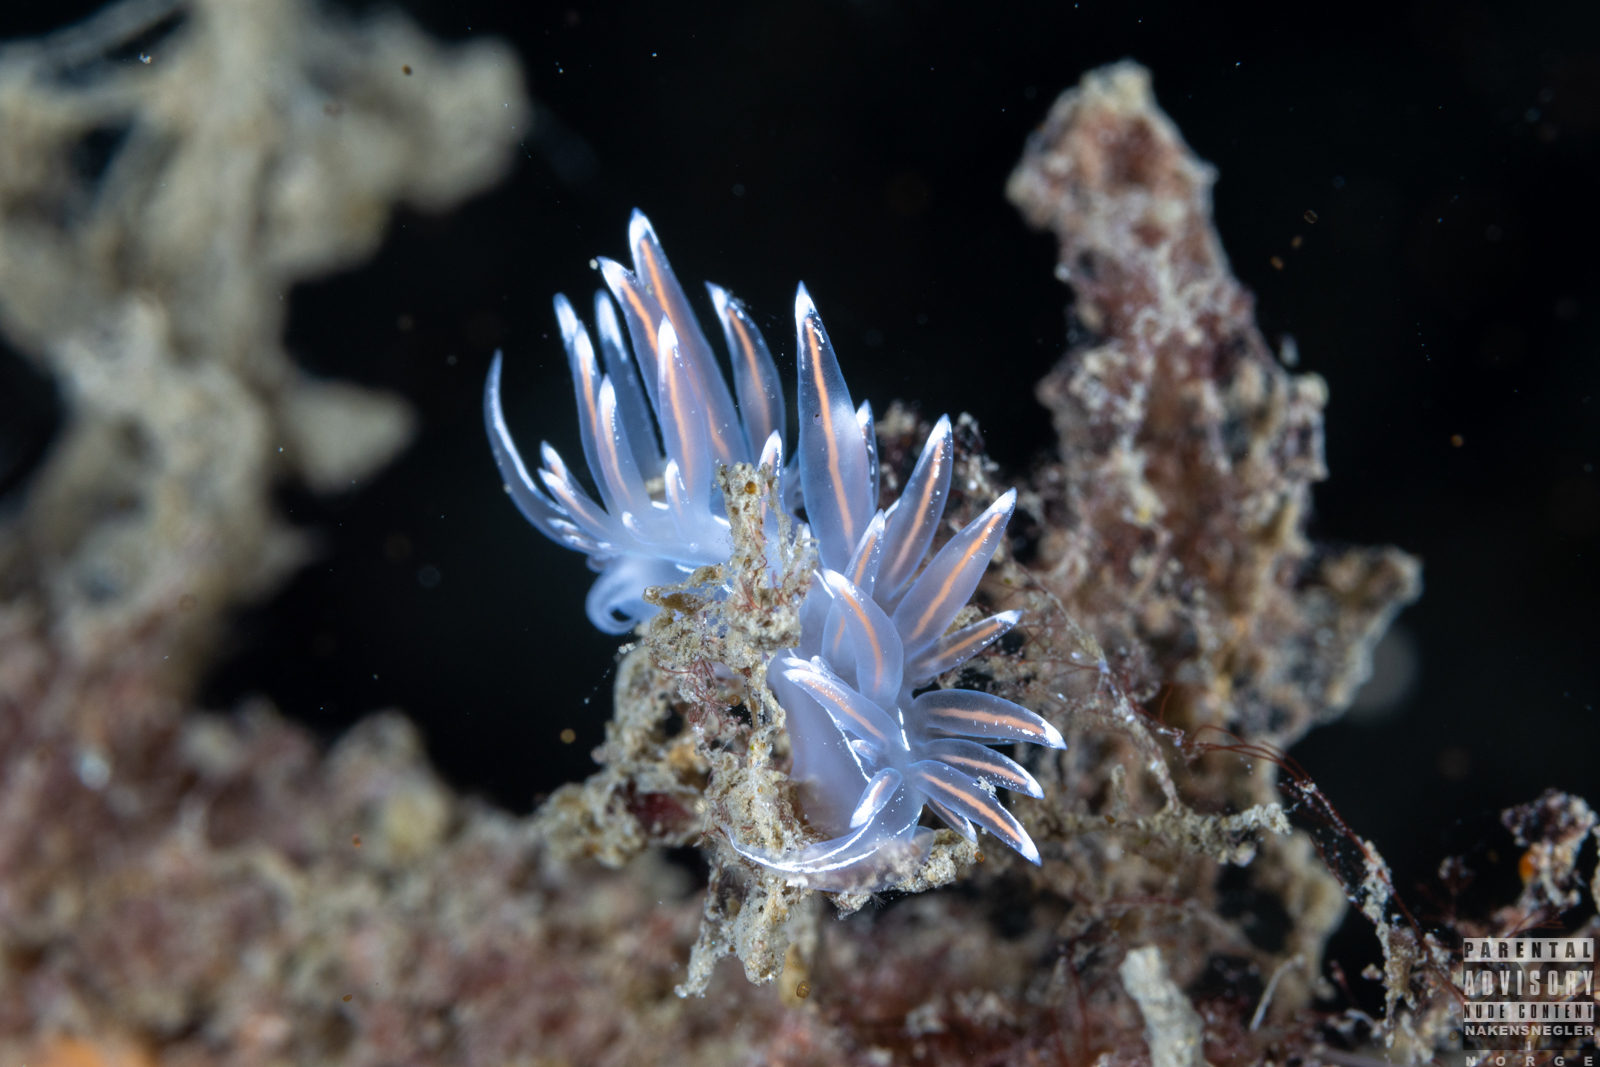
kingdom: Animalia
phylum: Mollusca
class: Gastropoda
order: Nudibranchia
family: Coryphellidae
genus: Coryphella
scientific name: Coryphella lineata
